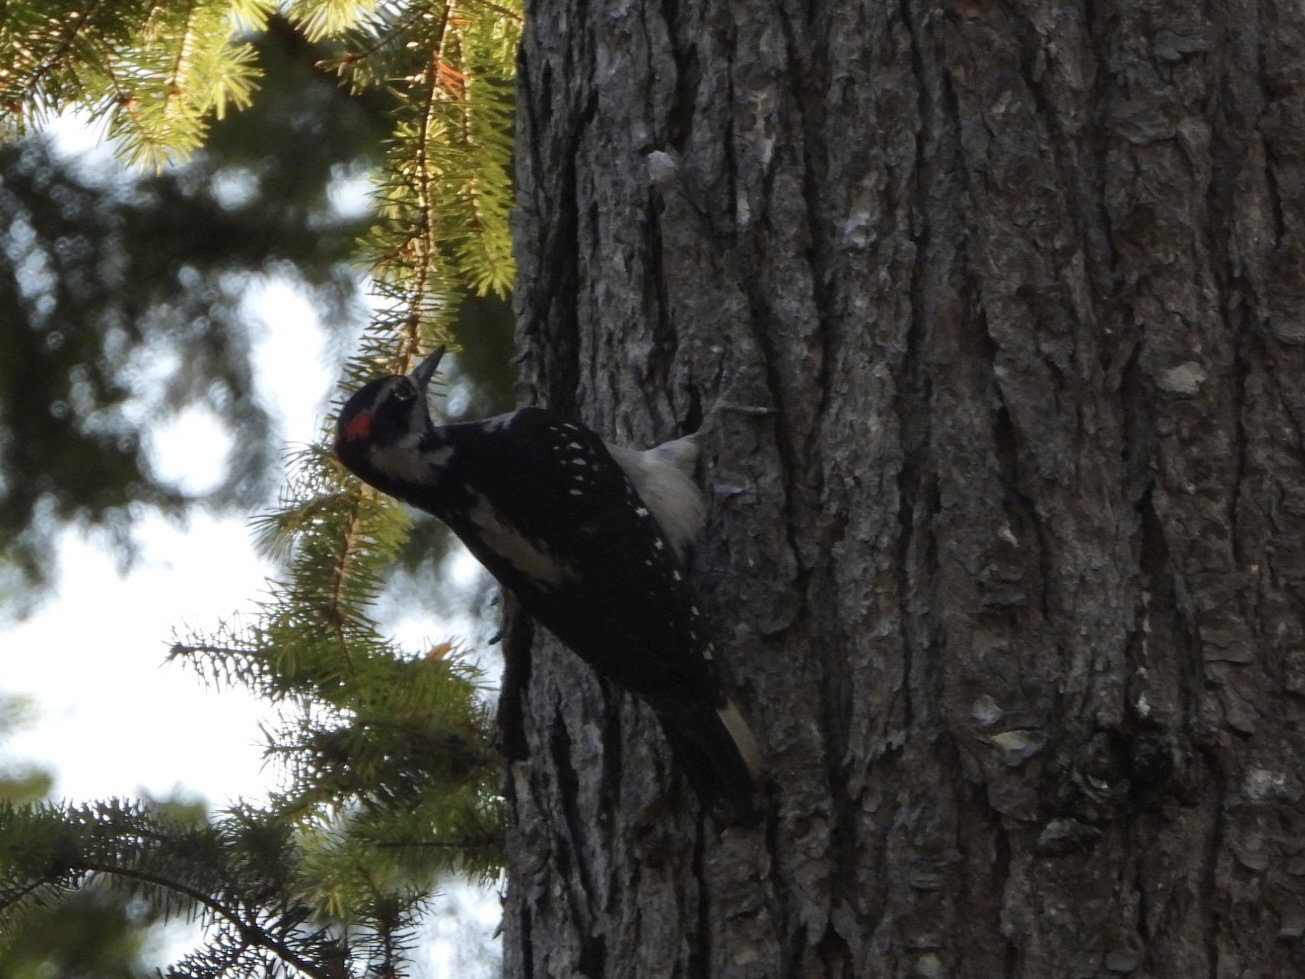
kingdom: Animalia
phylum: Chordata
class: Aves
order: Piciformes
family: Picidae
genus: Leuconotopicus
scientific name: Leuconotopicus villosus
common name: Hairy woodpecker
